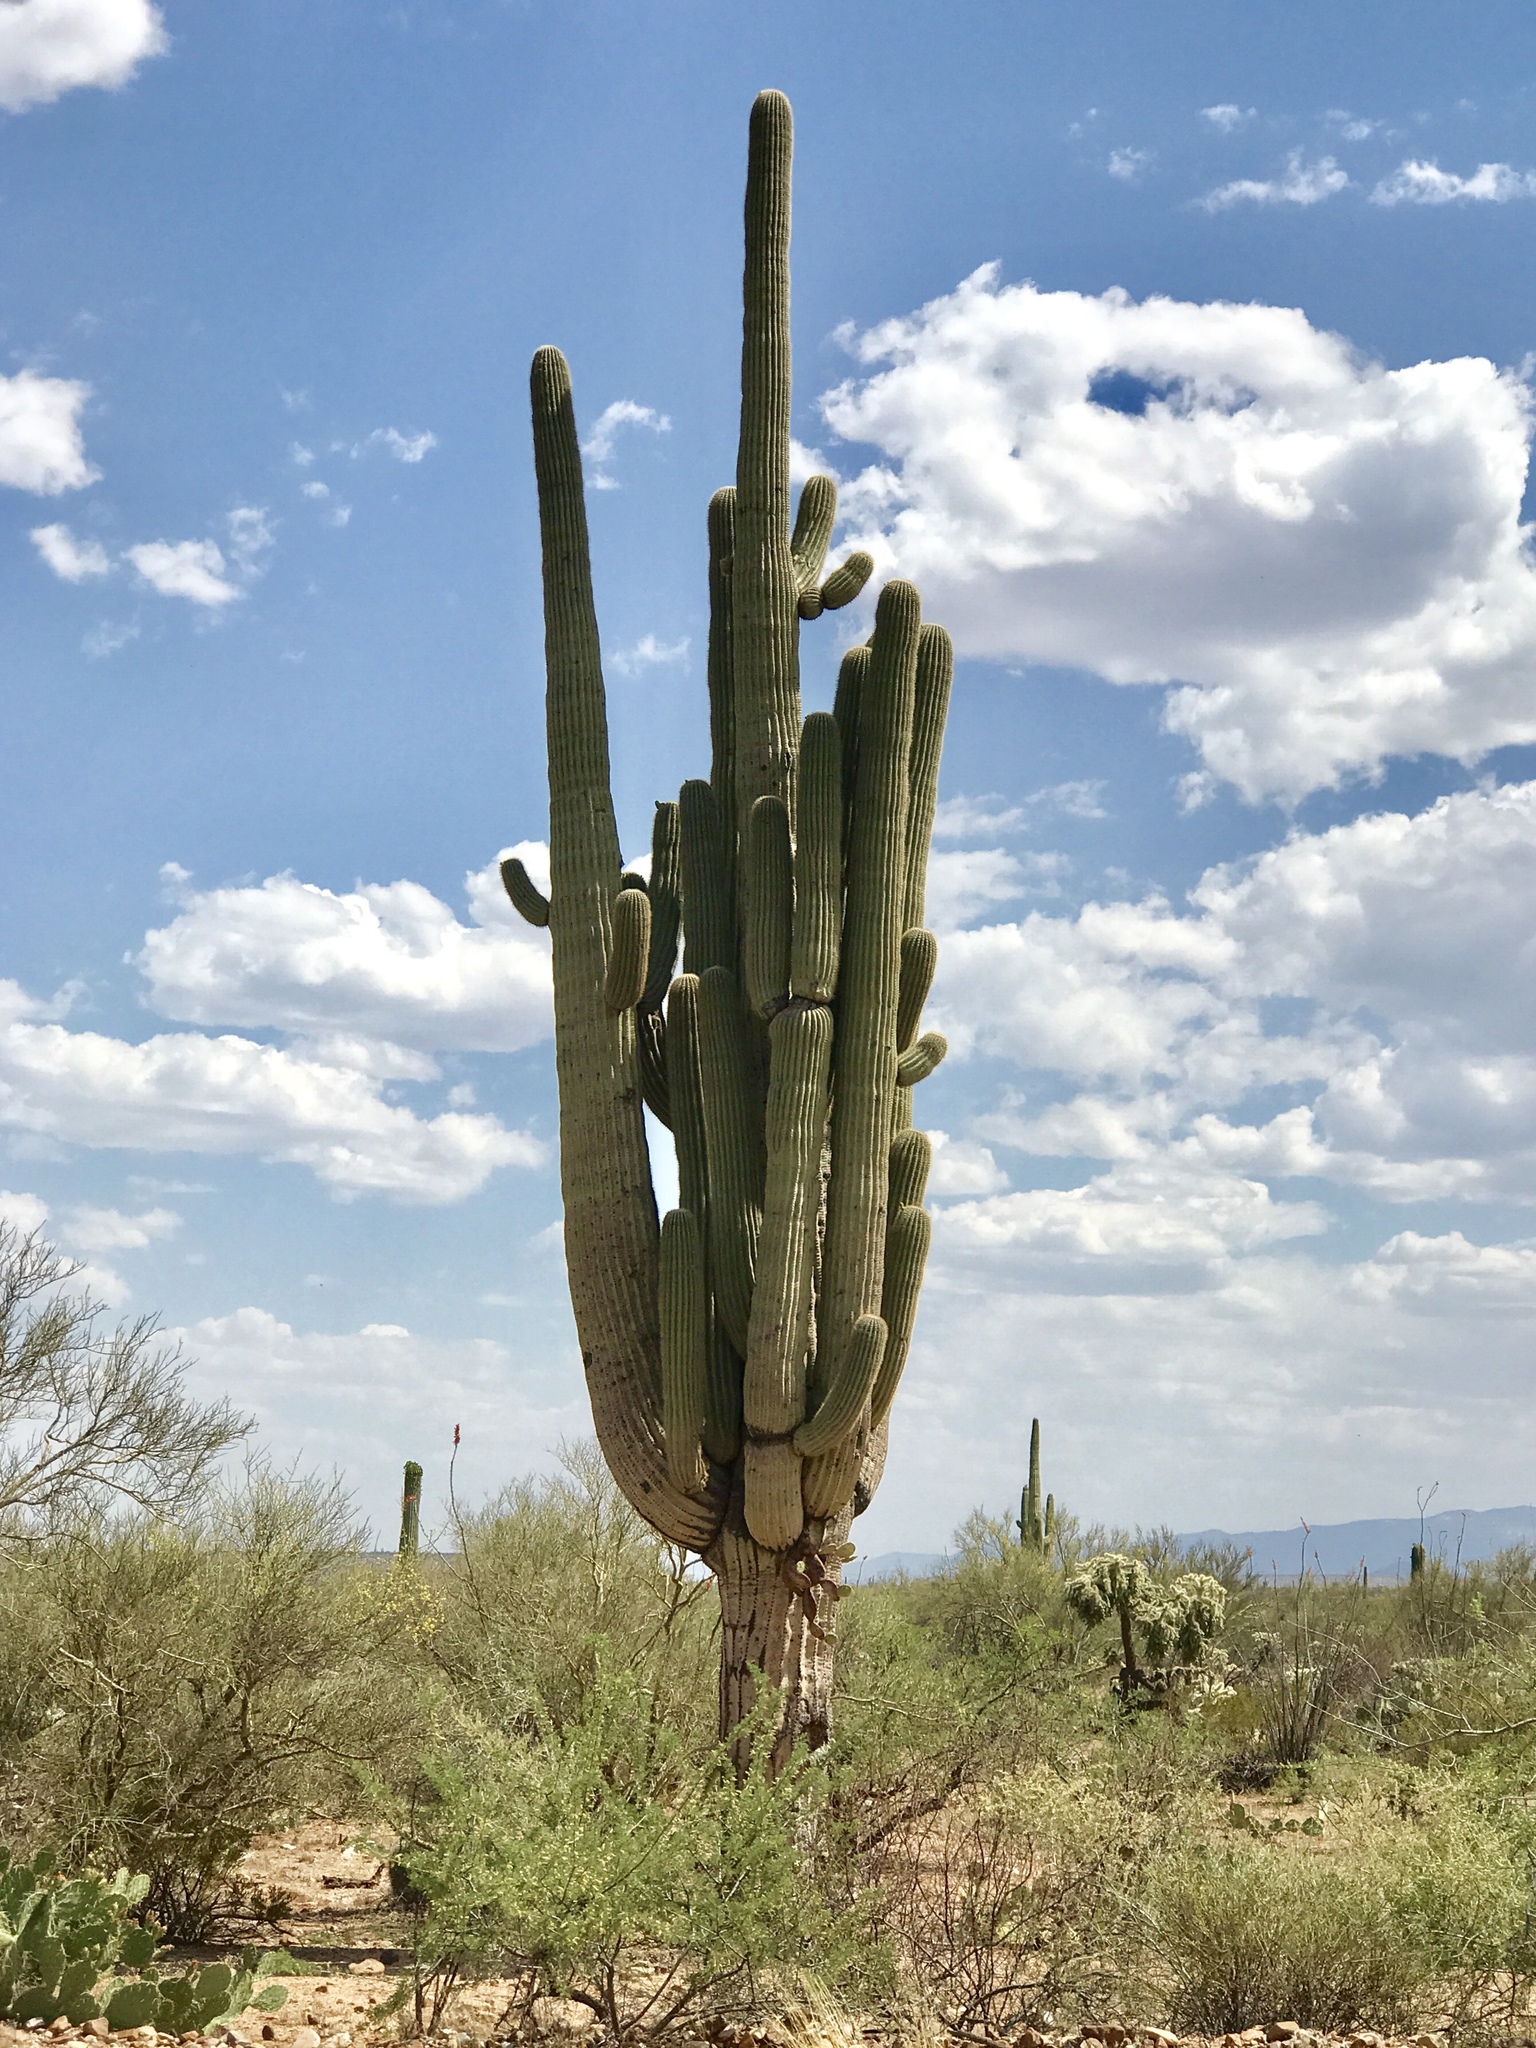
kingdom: Plantae
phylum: Tracheophyta
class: Magnoliopsida
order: Caryophyllales
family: Cactaceae
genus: Carnegiea
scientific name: Carnegiea gigantea
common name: Saguaro
